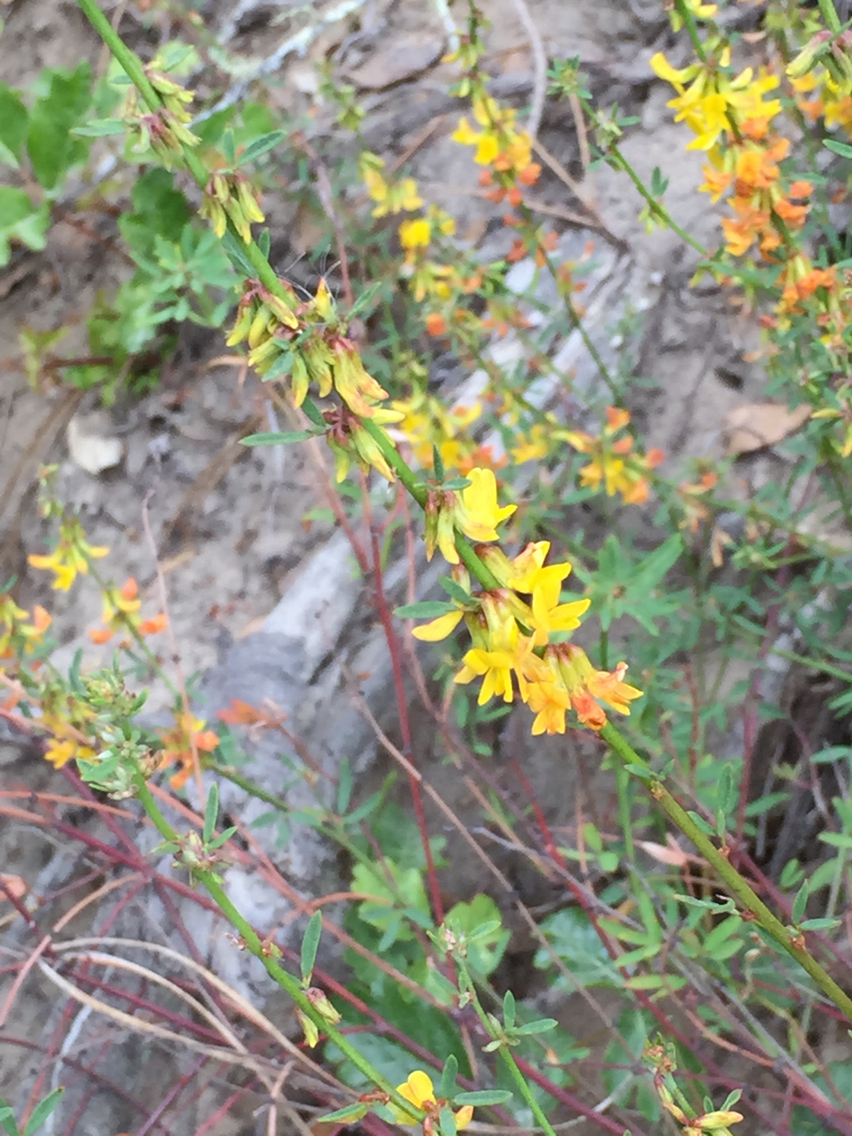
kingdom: Plantae
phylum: Tracheophyta
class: Magnoliopsida
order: Fabales
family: Fabaceae
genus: Acmispon
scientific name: Acmispon glaber
